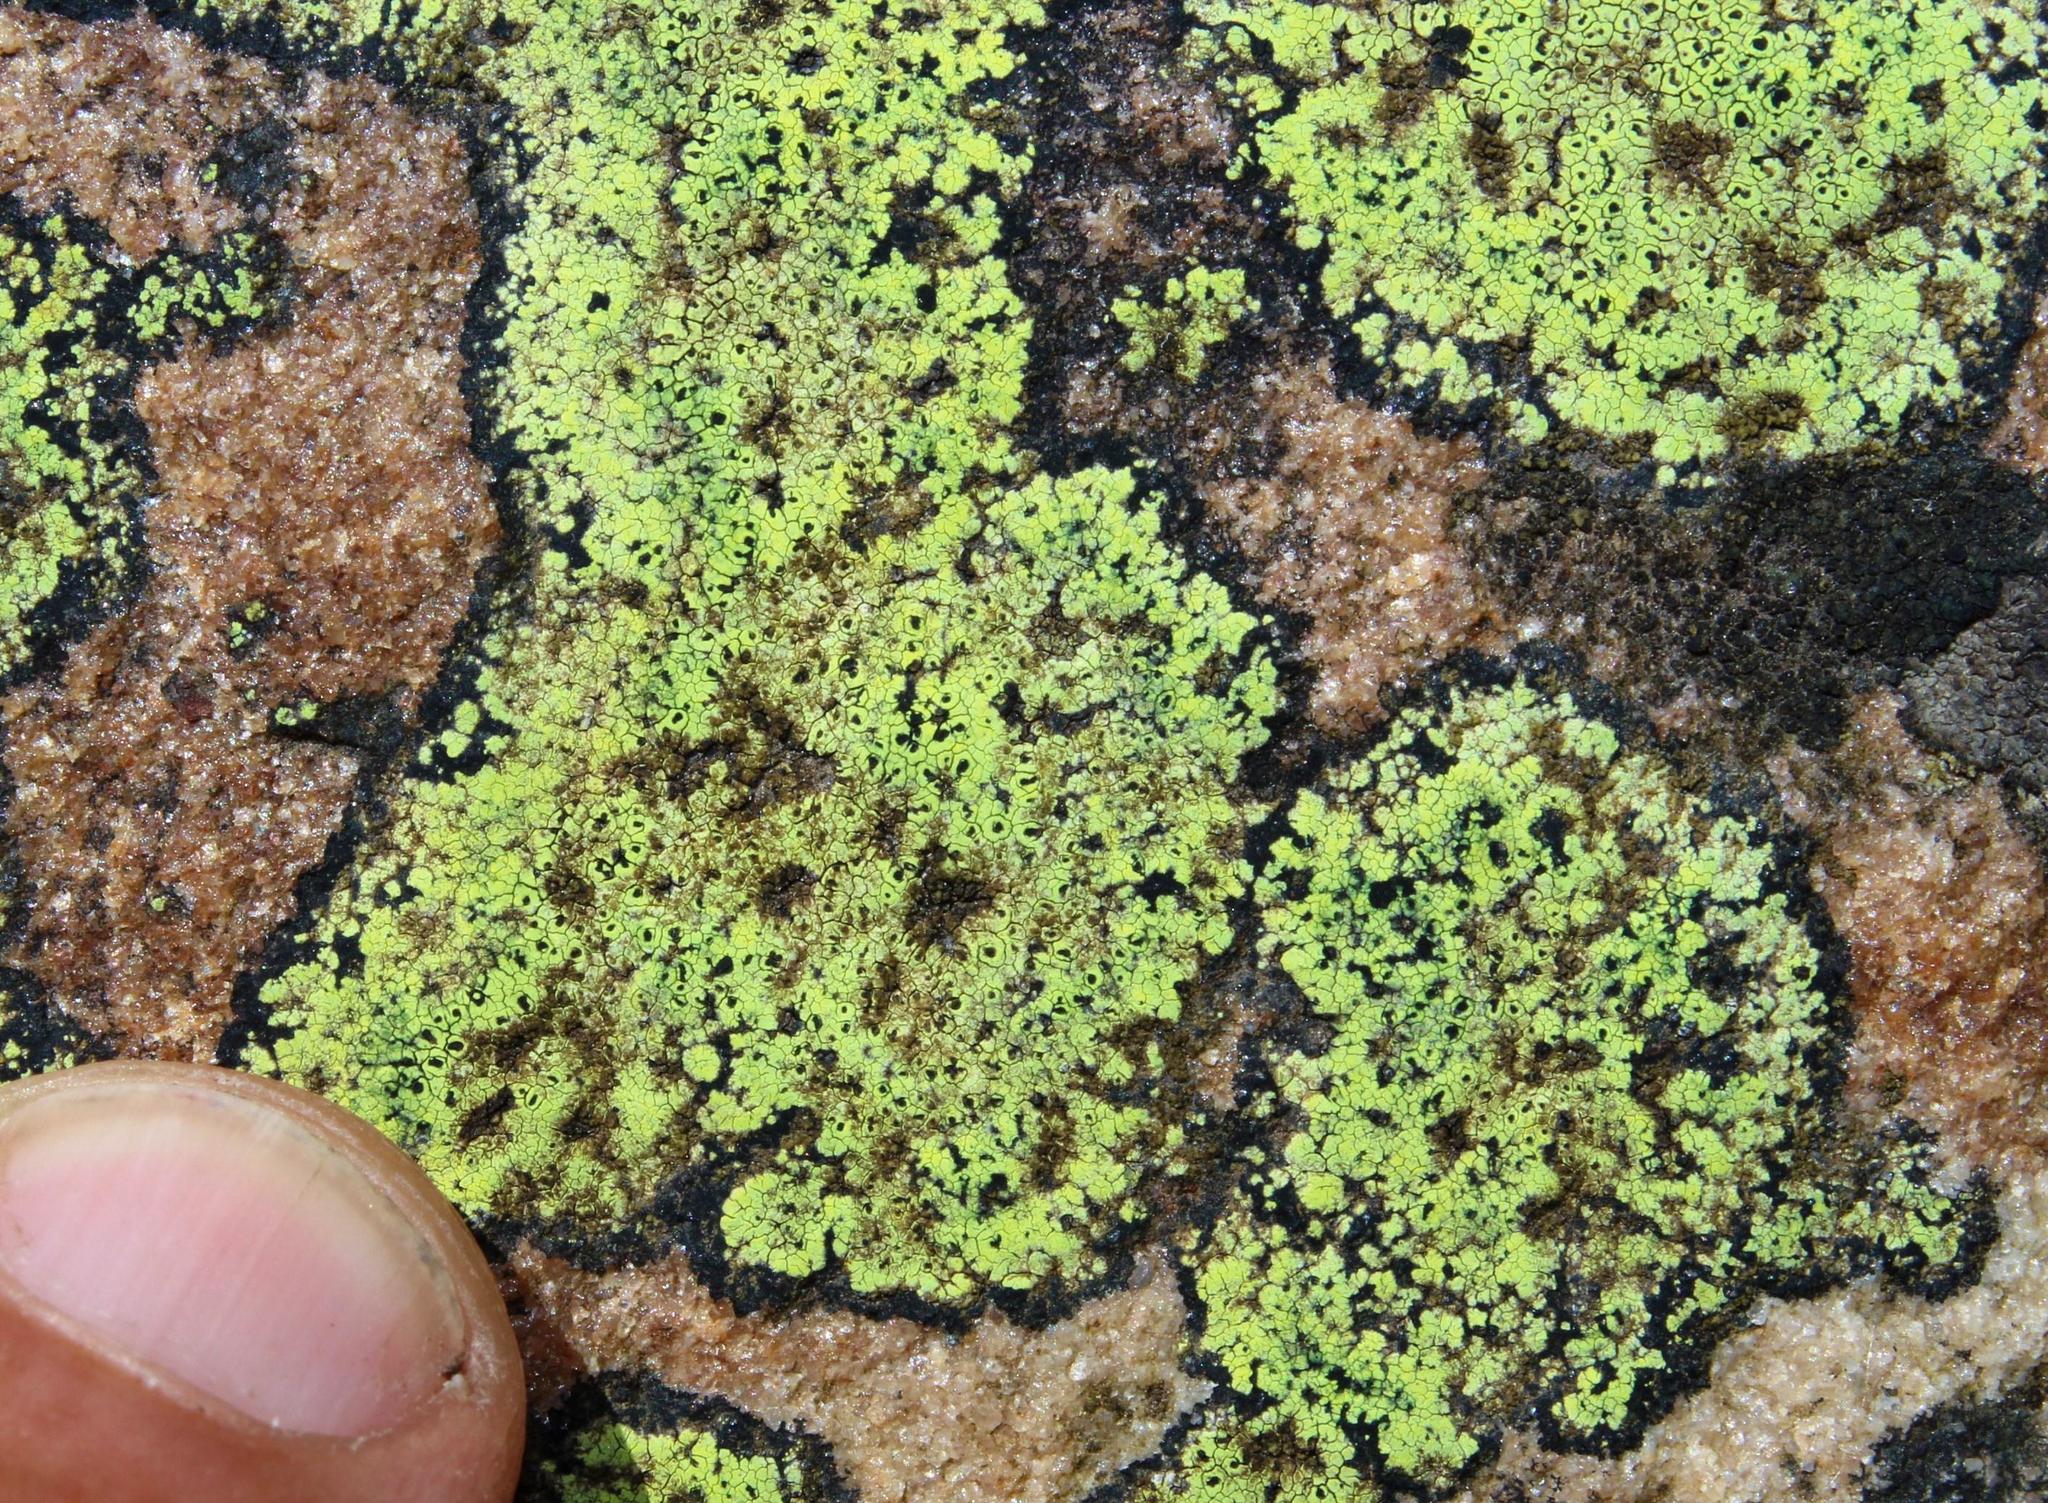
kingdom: Fungi
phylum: Ascomycota
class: Lecanoromycetes
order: Rhizocarpales
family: Rhizocarpaceae
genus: Rhizocarpon
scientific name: Rhizocarpon lecanorinum
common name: Crescent map lichen
